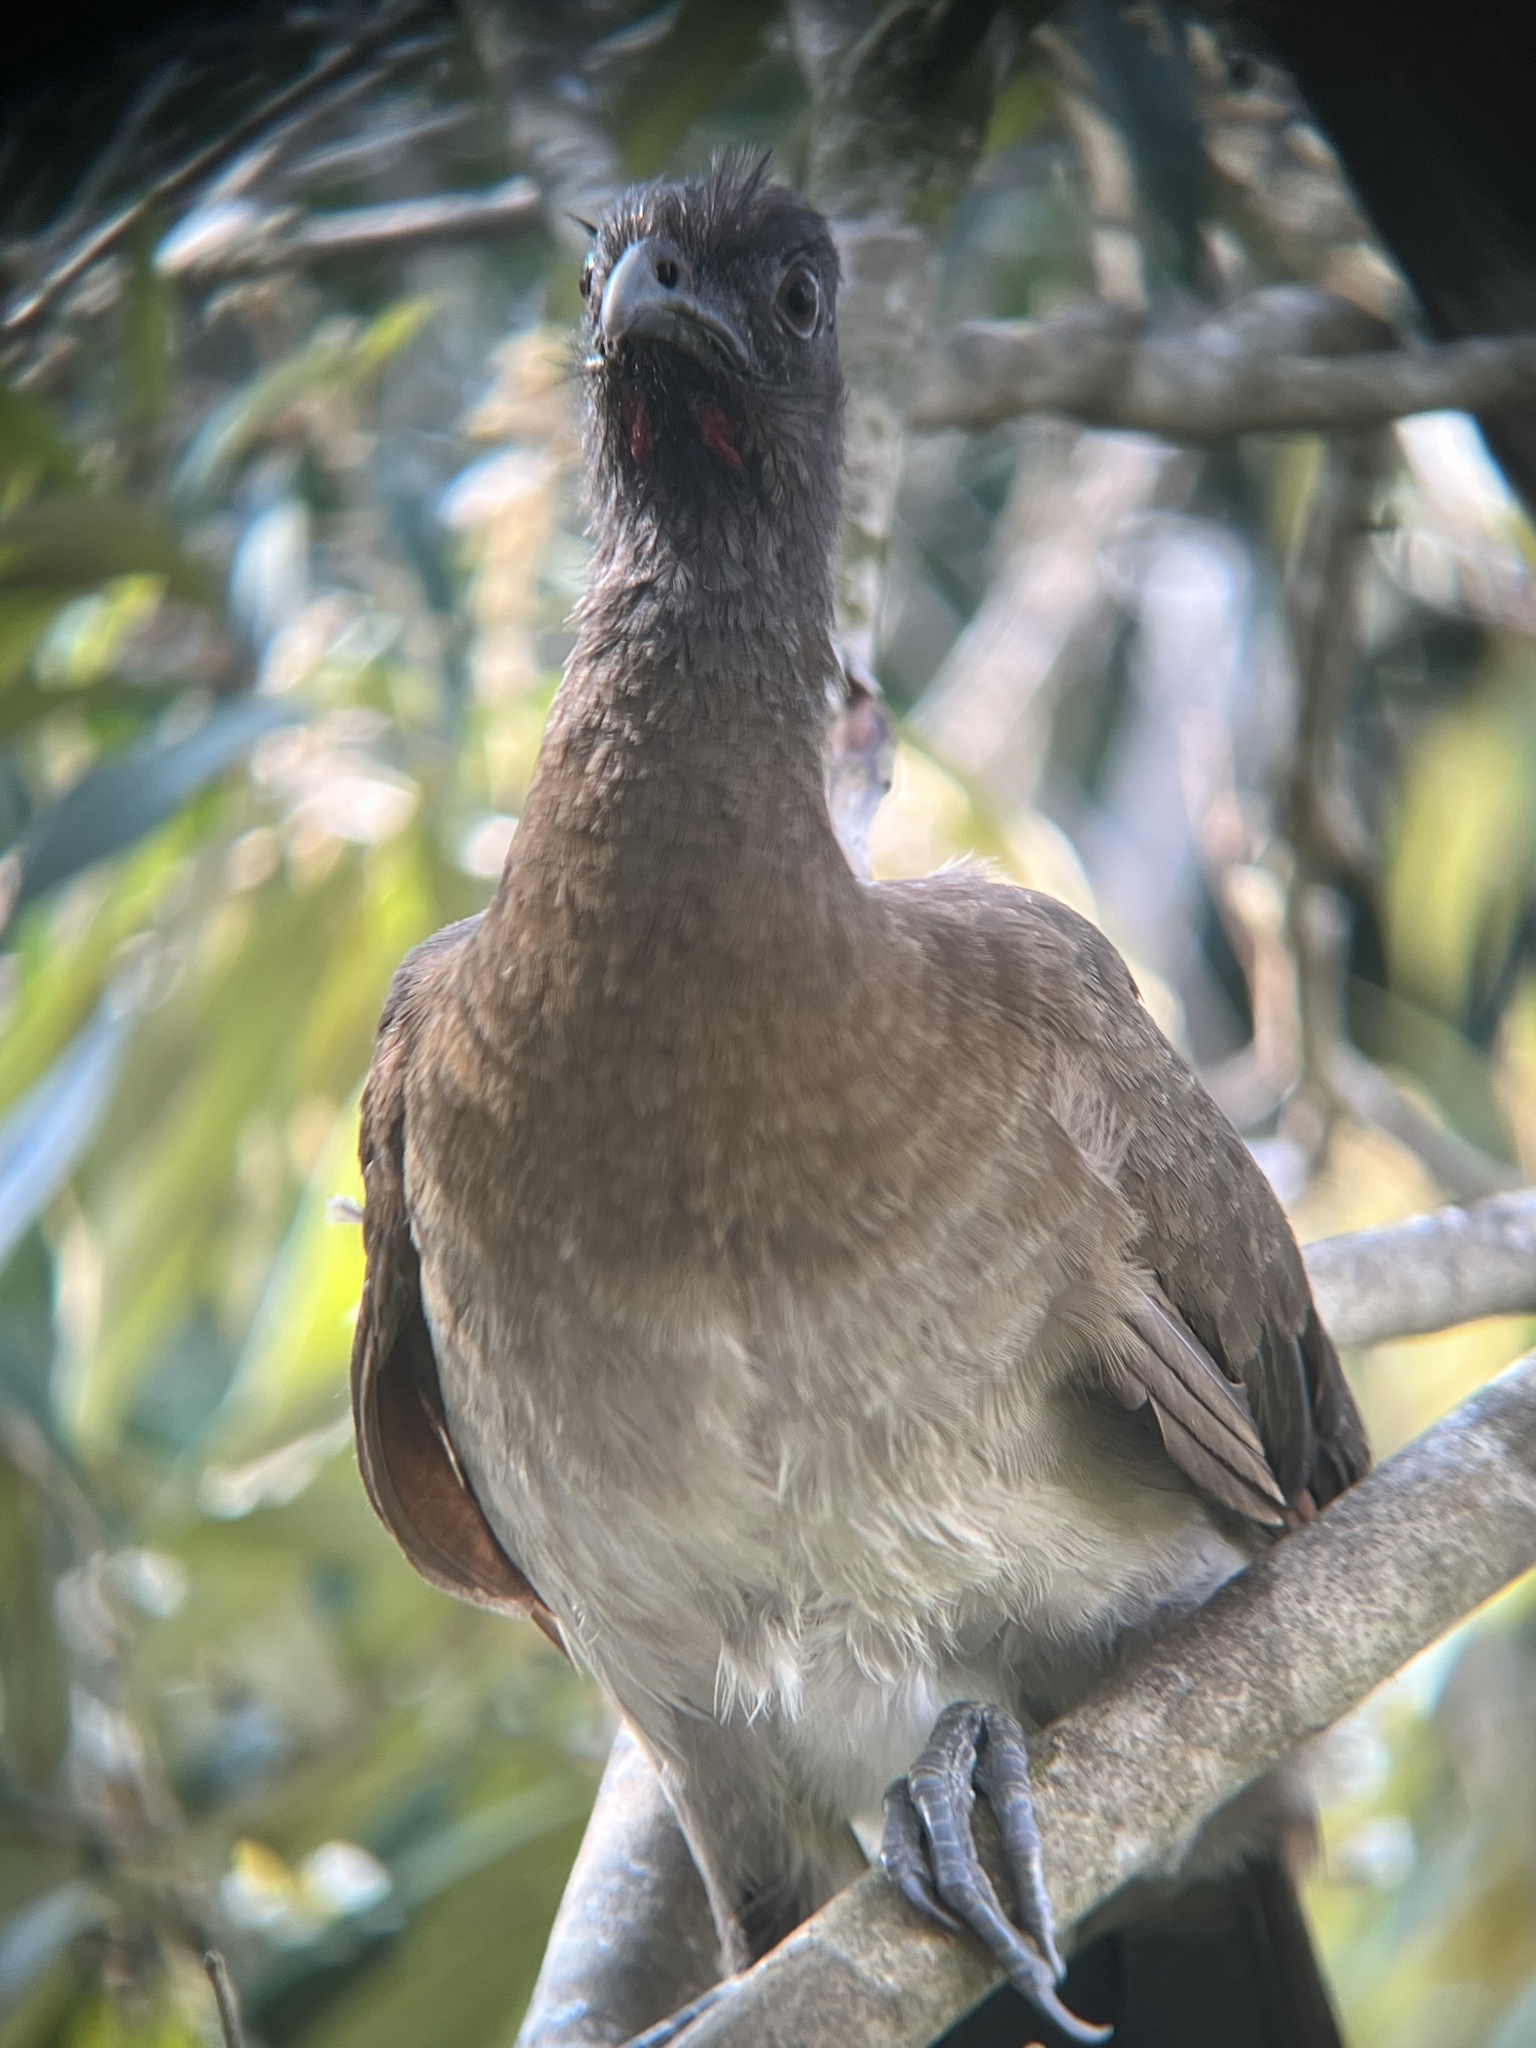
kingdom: Animalia
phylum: Chordata
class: Aves
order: Galliformes
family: Cracidae
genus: Ortalis
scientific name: Ortalis cinereiceps
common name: Grey-headed chachalaca
